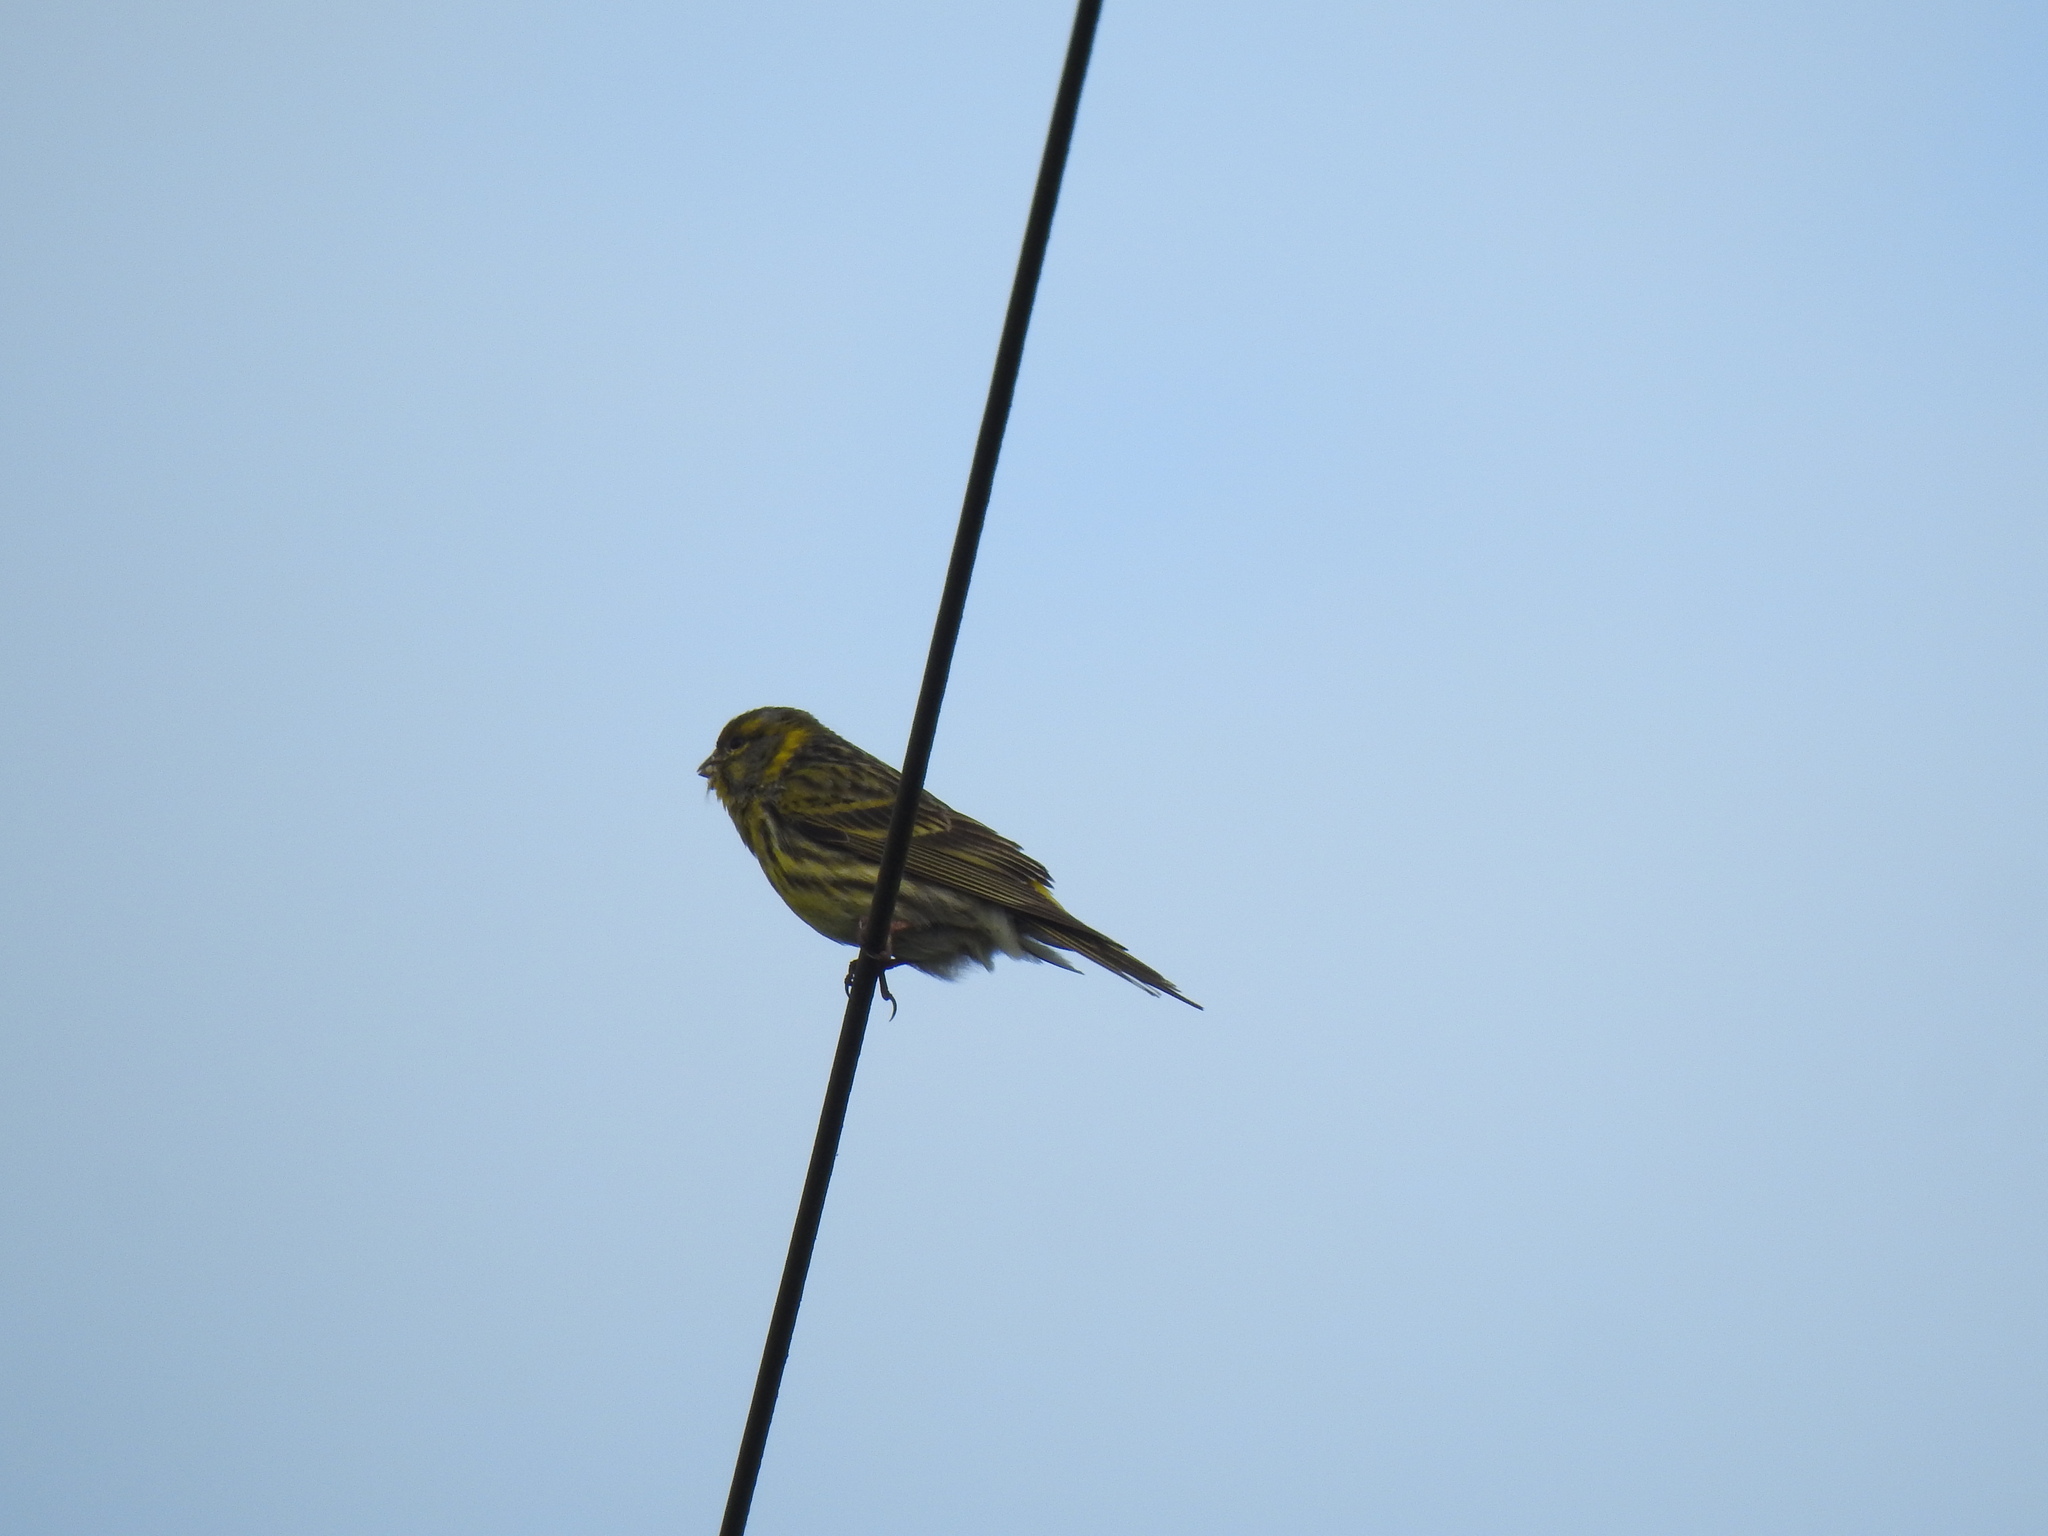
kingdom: Animalia
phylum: Chordata
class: Aves
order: Passeriformes
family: Fringillidae
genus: Serinus
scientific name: Serinus serinus
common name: European serin
